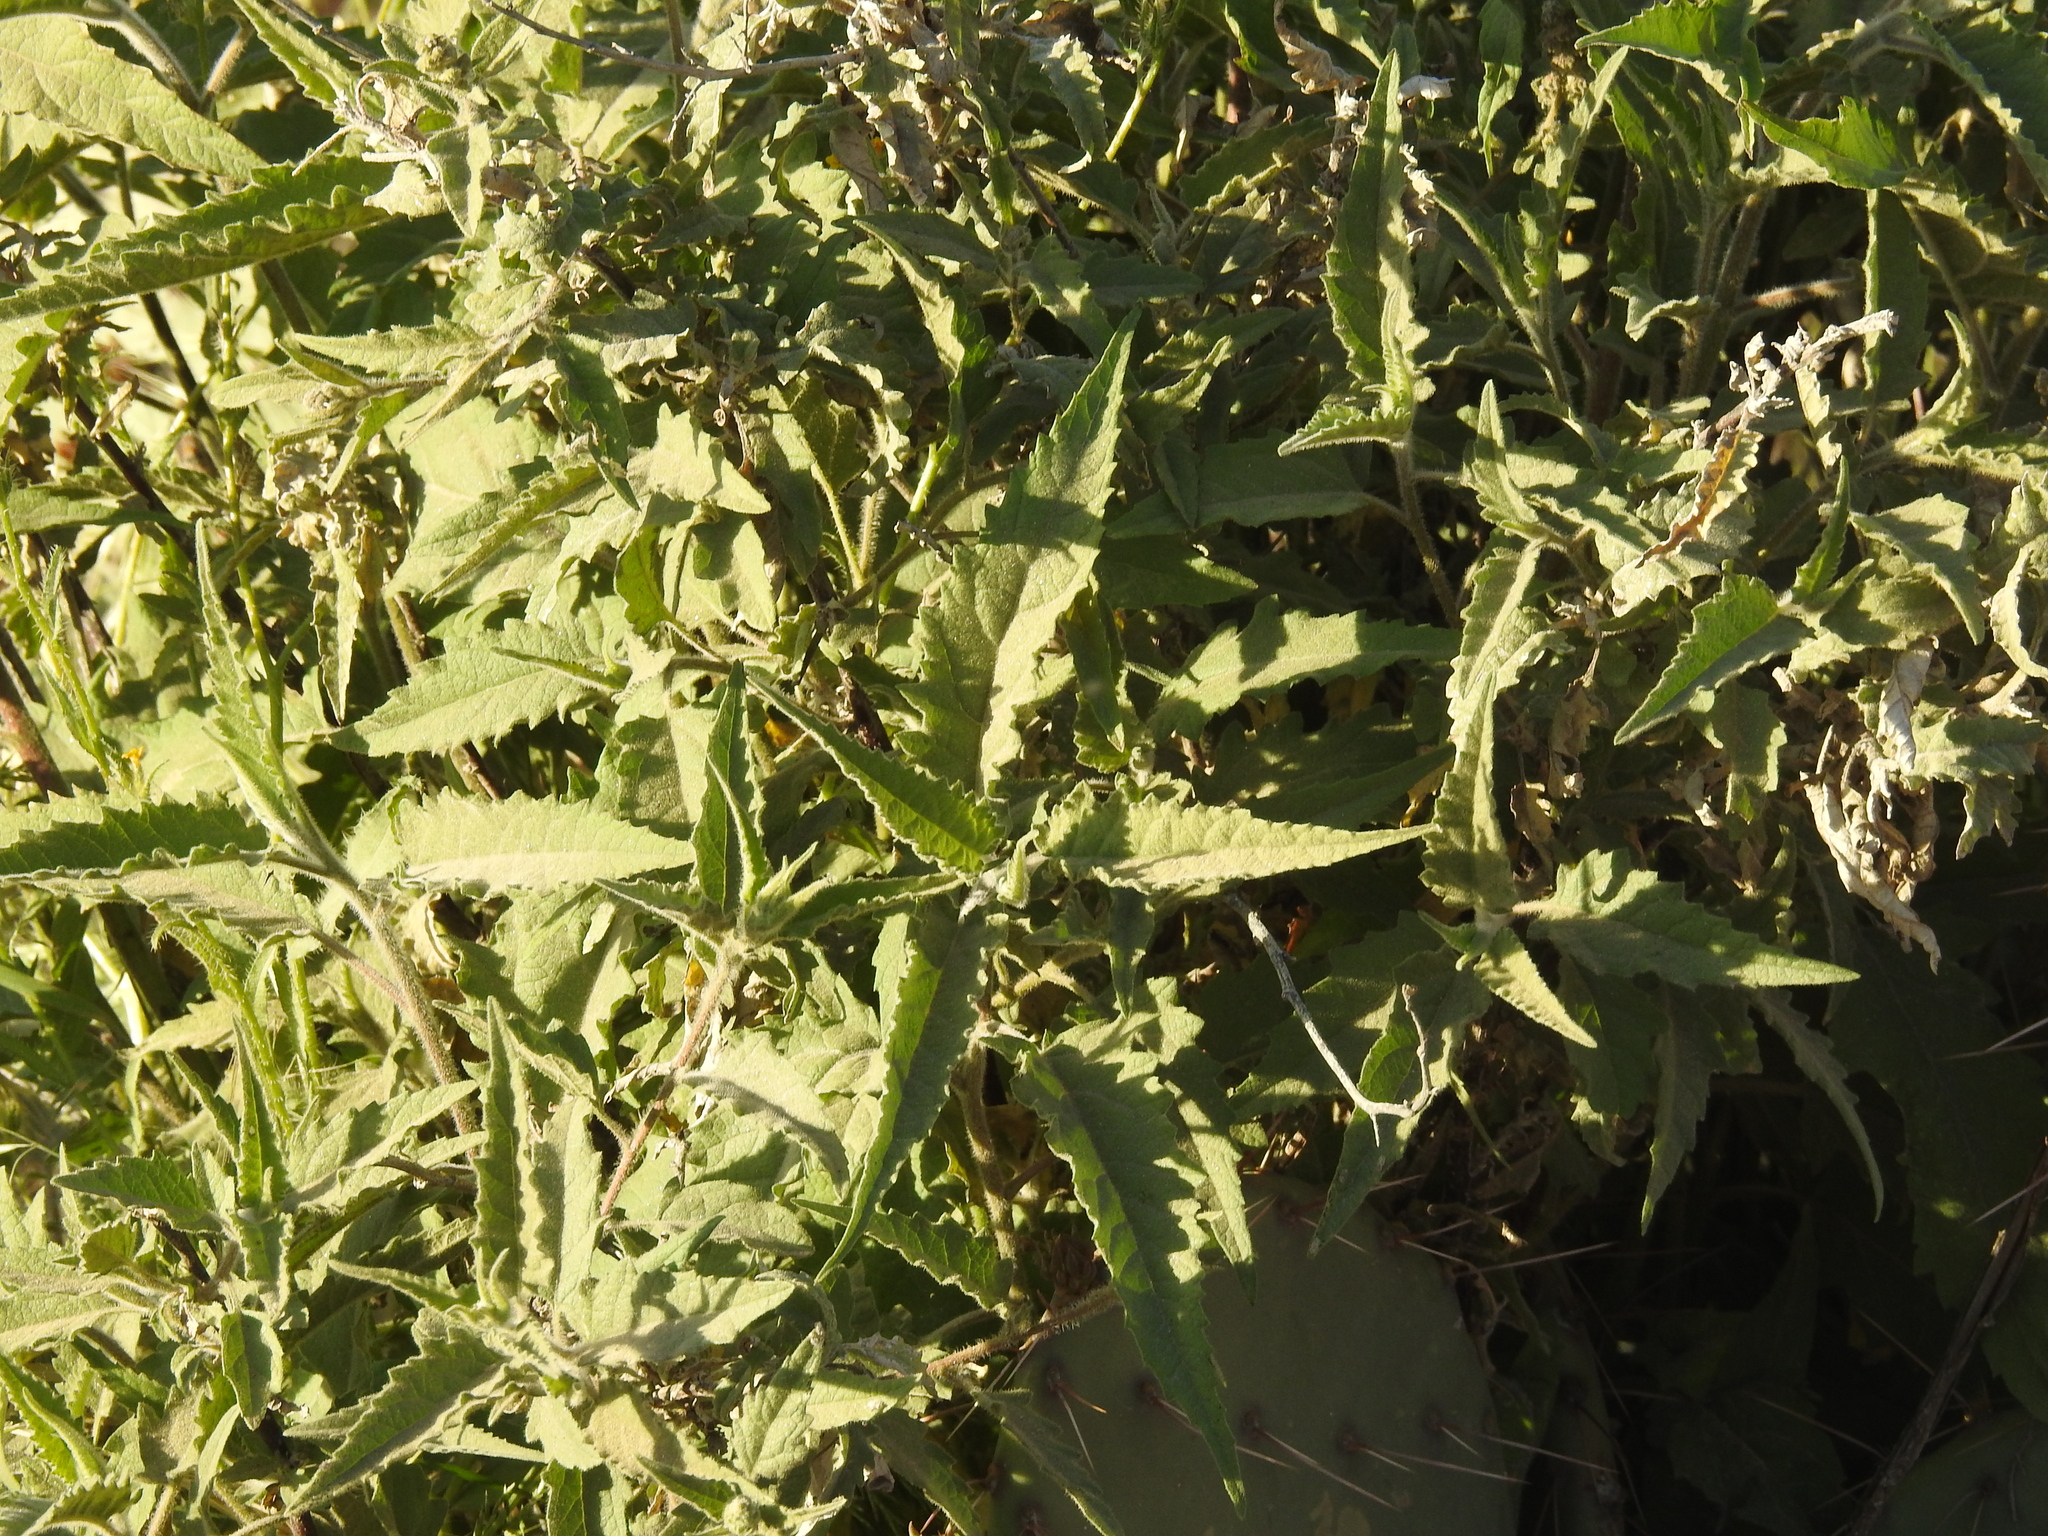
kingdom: Plantae
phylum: Tracheophyta
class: Magnoliopsida
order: Asterales
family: Asteraceae
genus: Ambrosia
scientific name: Ambrosia ambrosioides
